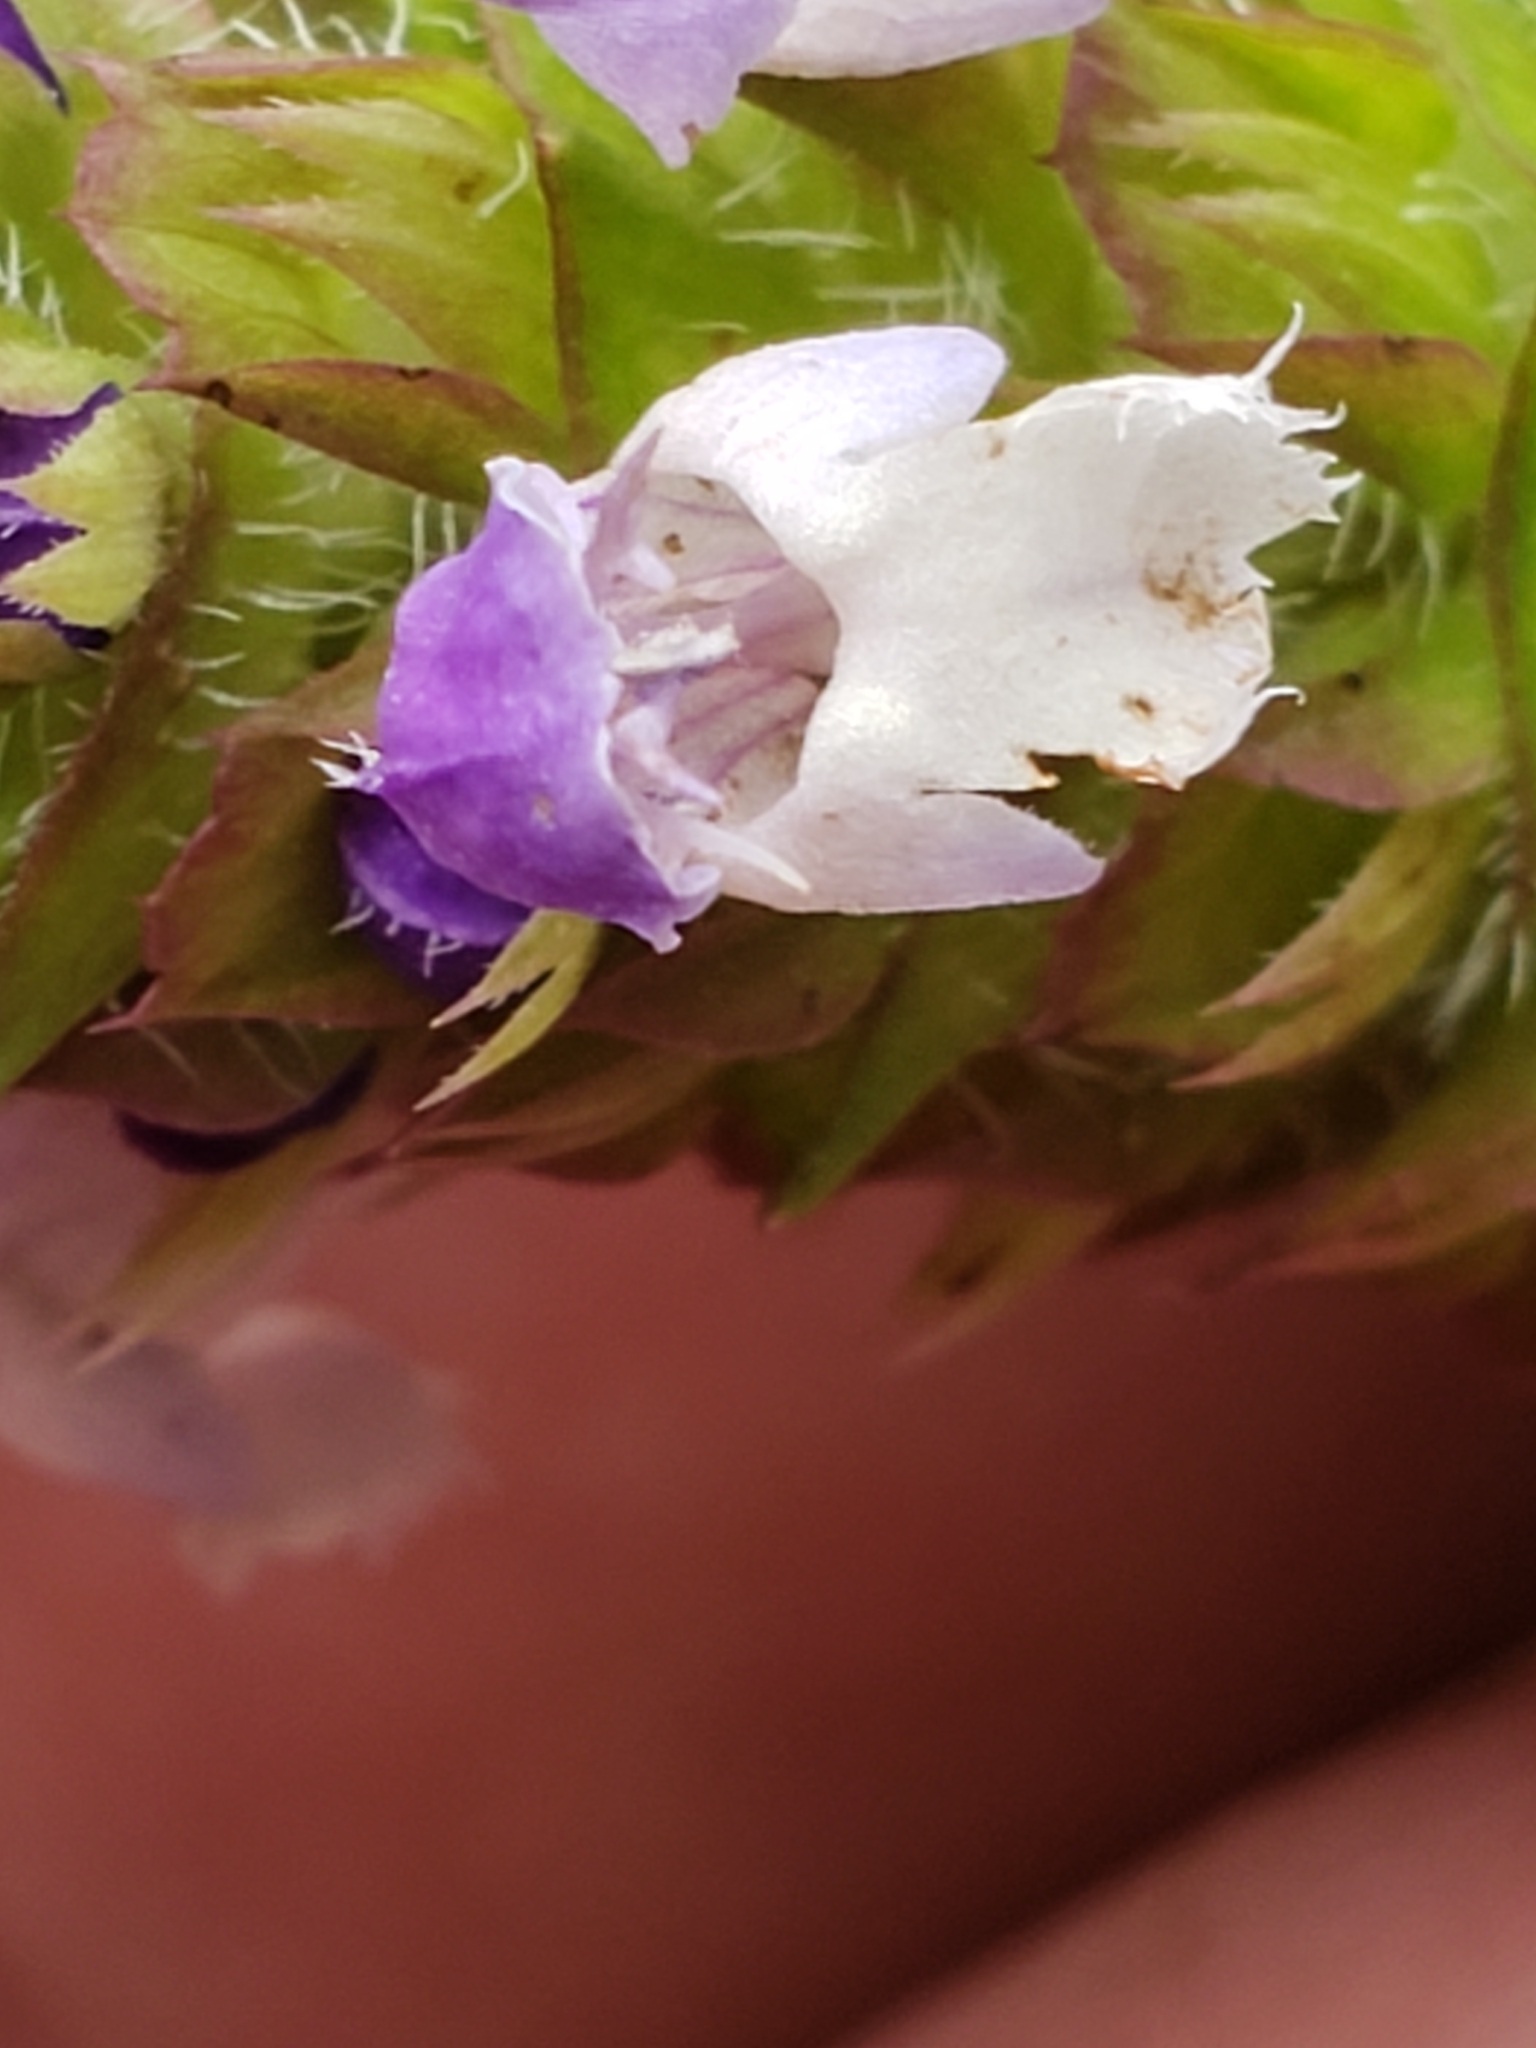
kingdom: Plantae
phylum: Tracheophyta
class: Magnoliopsida
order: Lamiales
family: Lamiaceae
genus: Prunella
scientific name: Prunella vulgaris
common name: Heal-all
